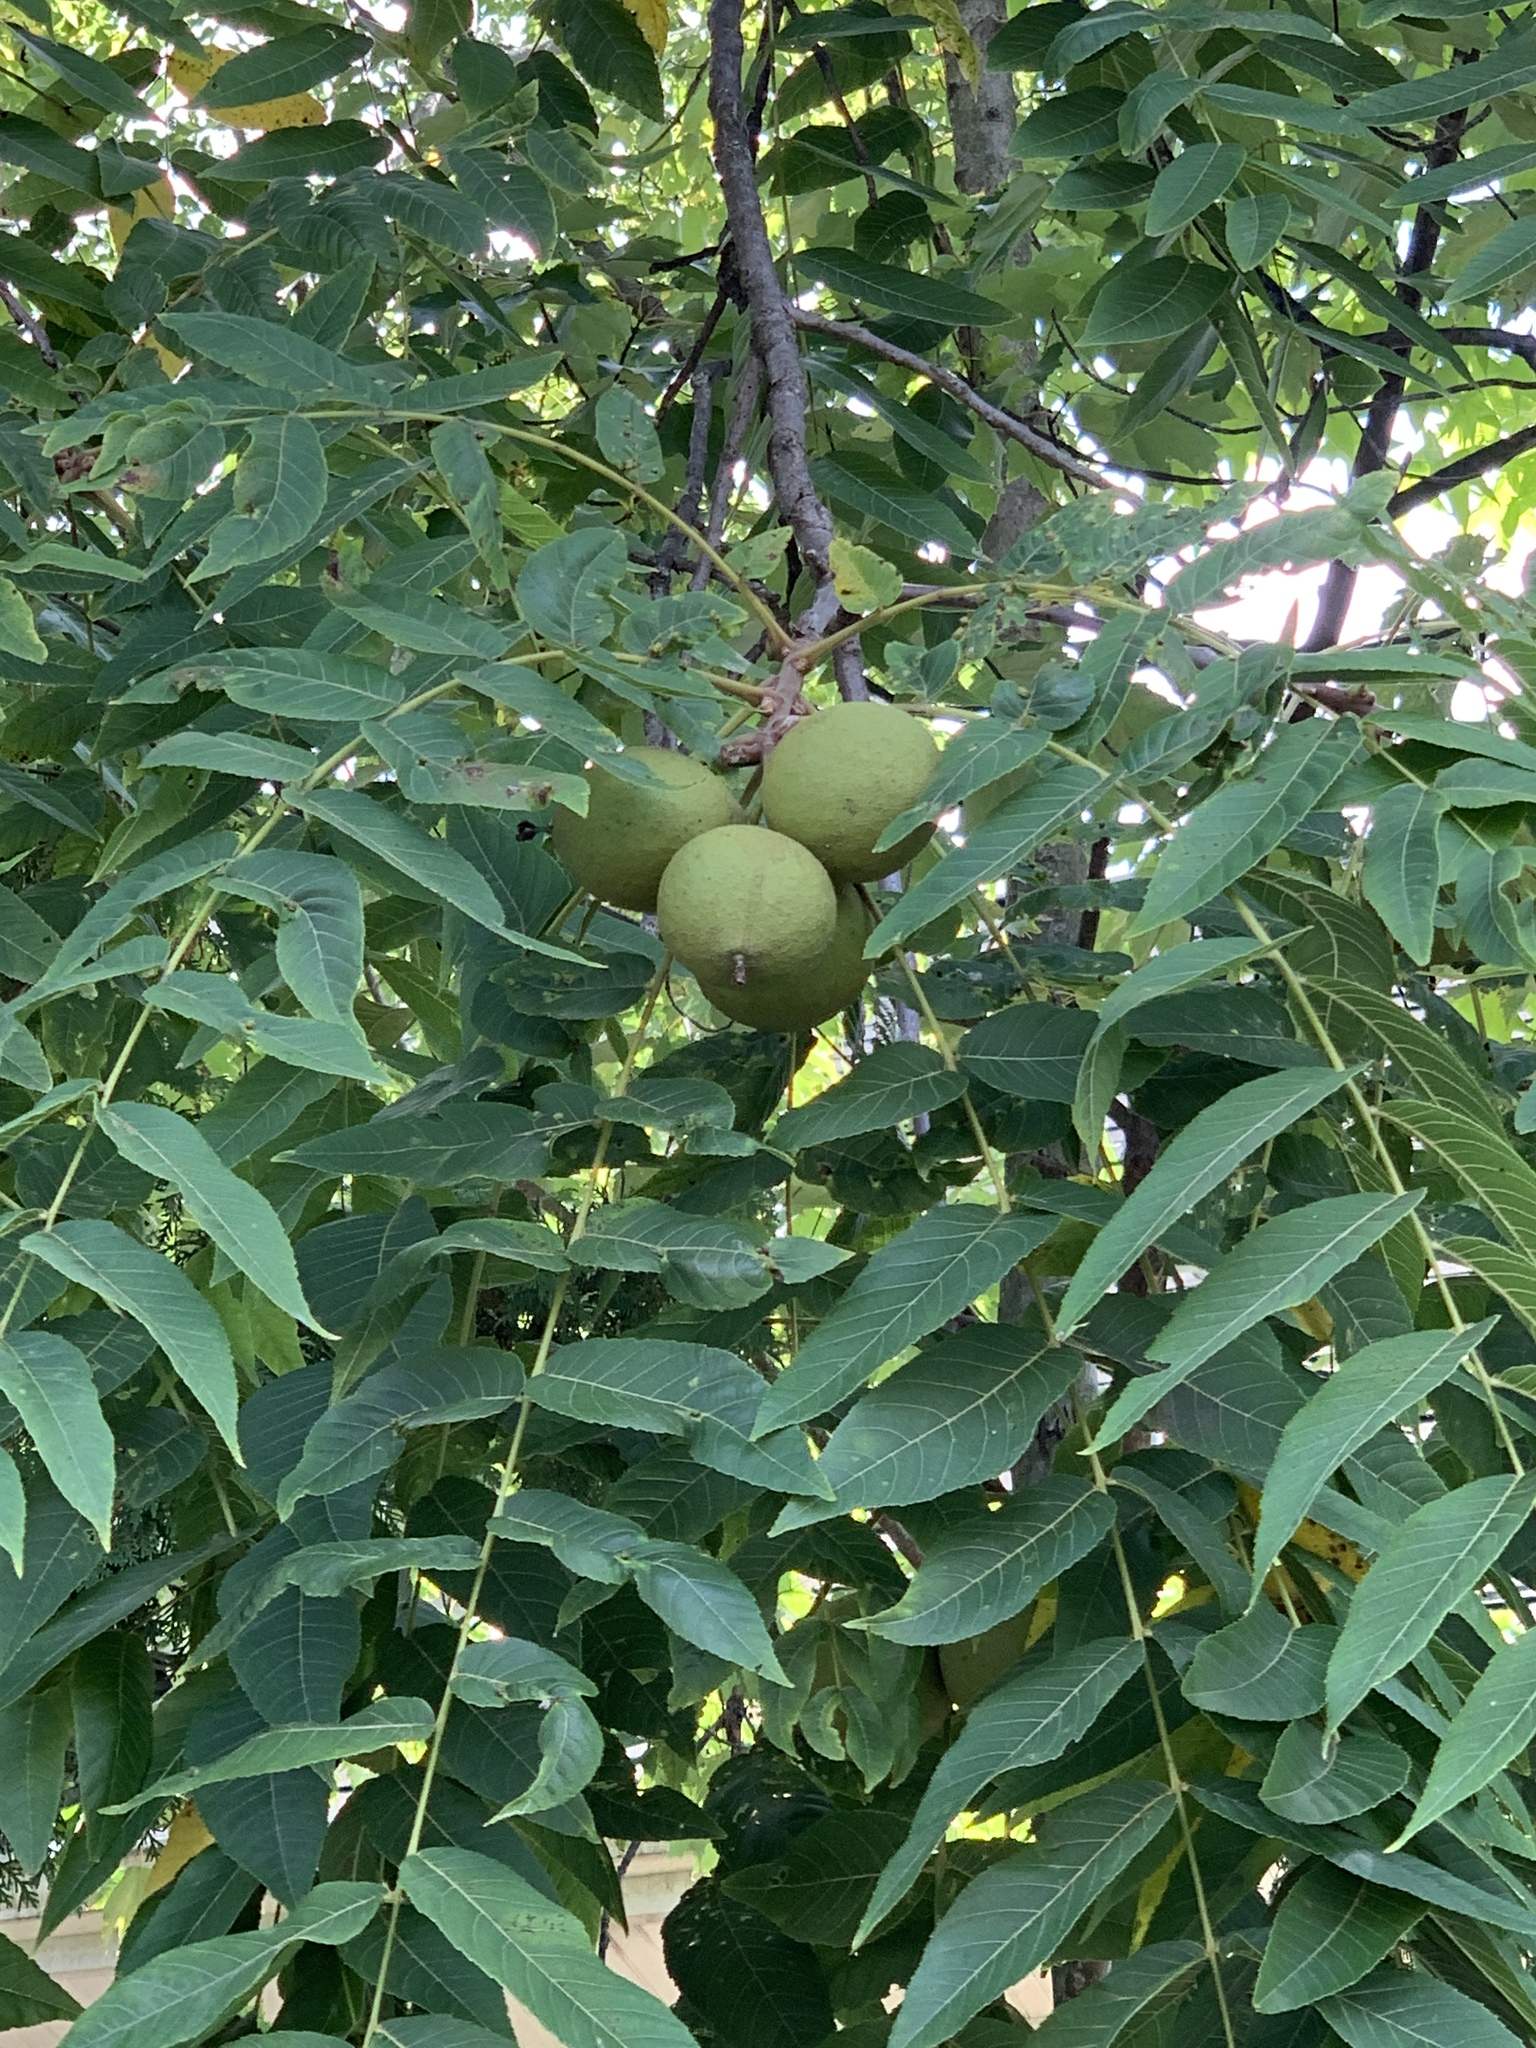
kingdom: Plantae
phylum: Tracheophyta
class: Magnoliopsida
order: Fagales
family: Juglandaceae
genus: Juglans
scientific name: Juglans nigra
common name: Black walnut
